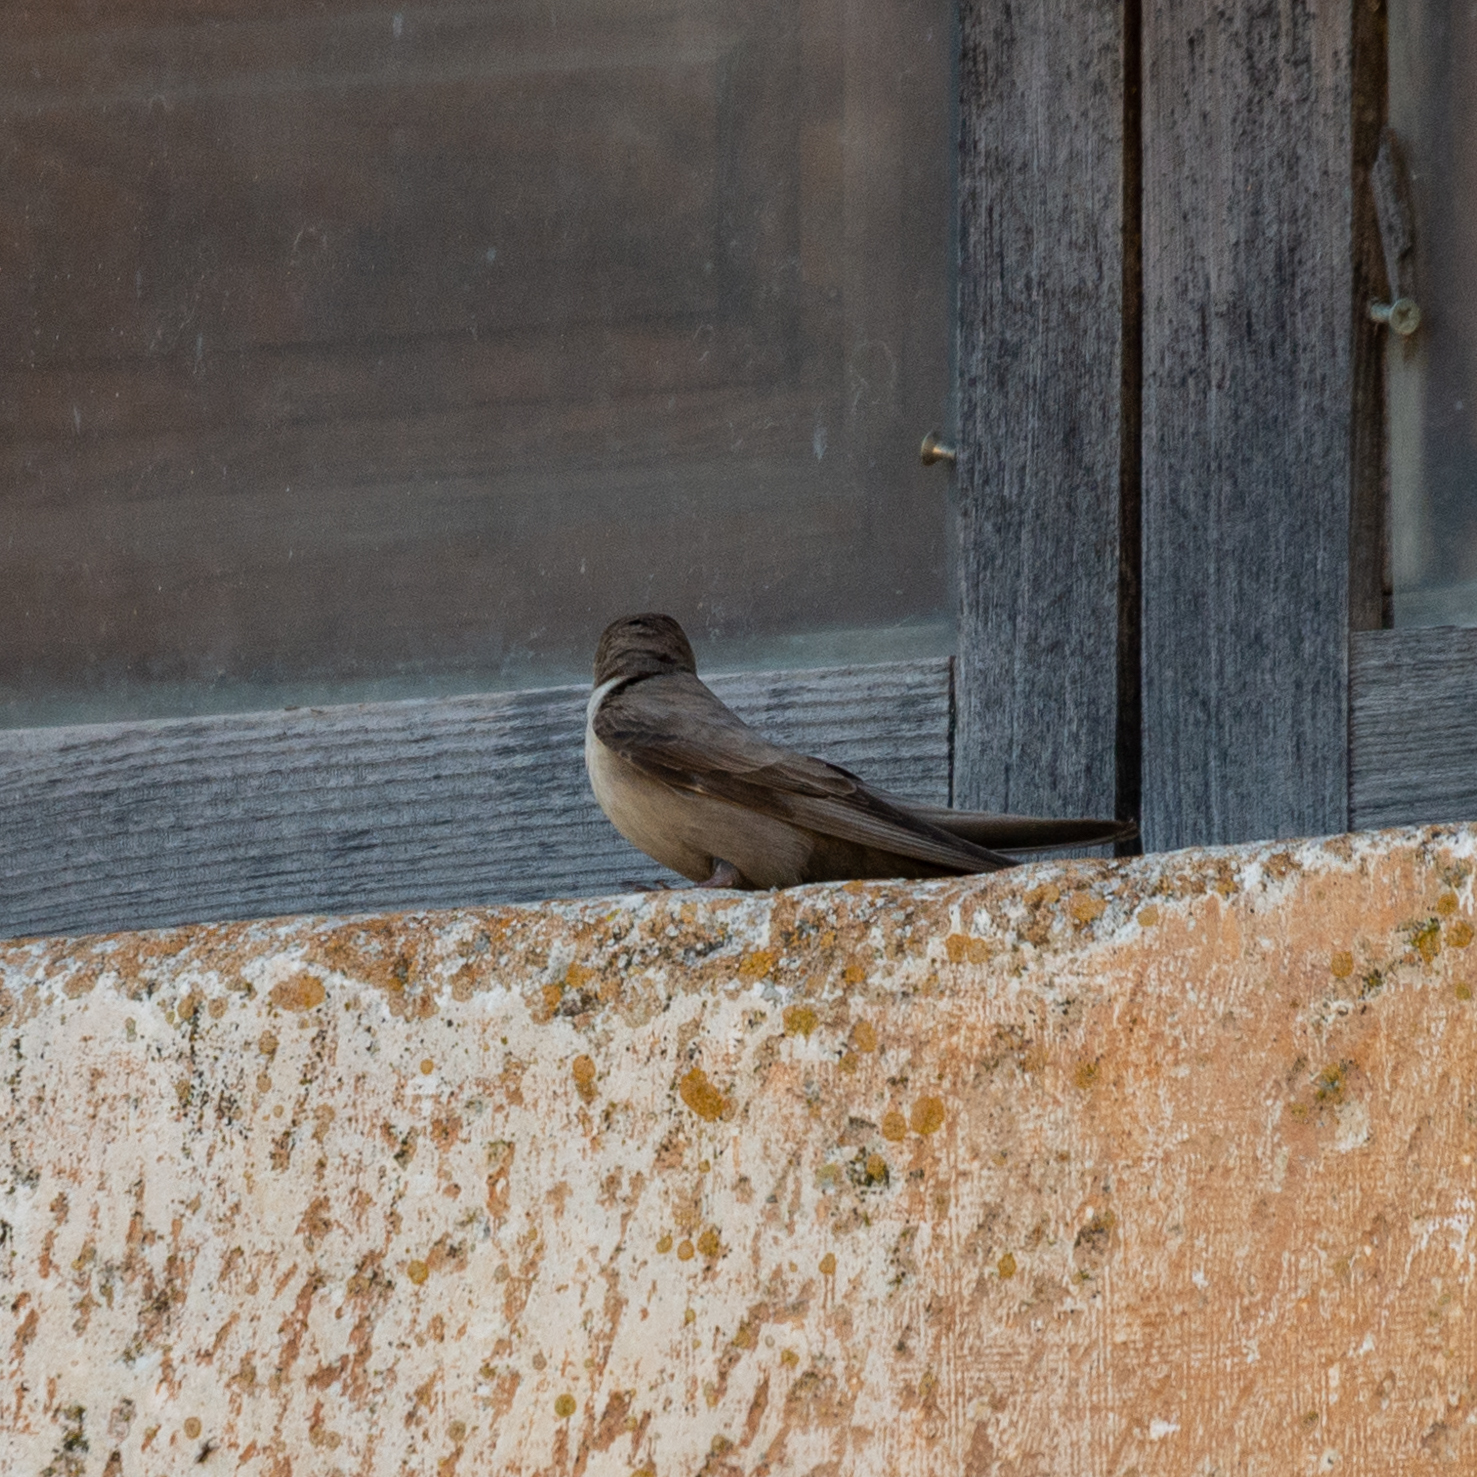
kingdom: Animalia
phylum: Chordata
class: Aves
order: Passeriformes
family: Hirundinidae
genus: Ptyonoprogne
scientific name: Ptyonoprogne rupestris
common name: Eurasian crag martin
